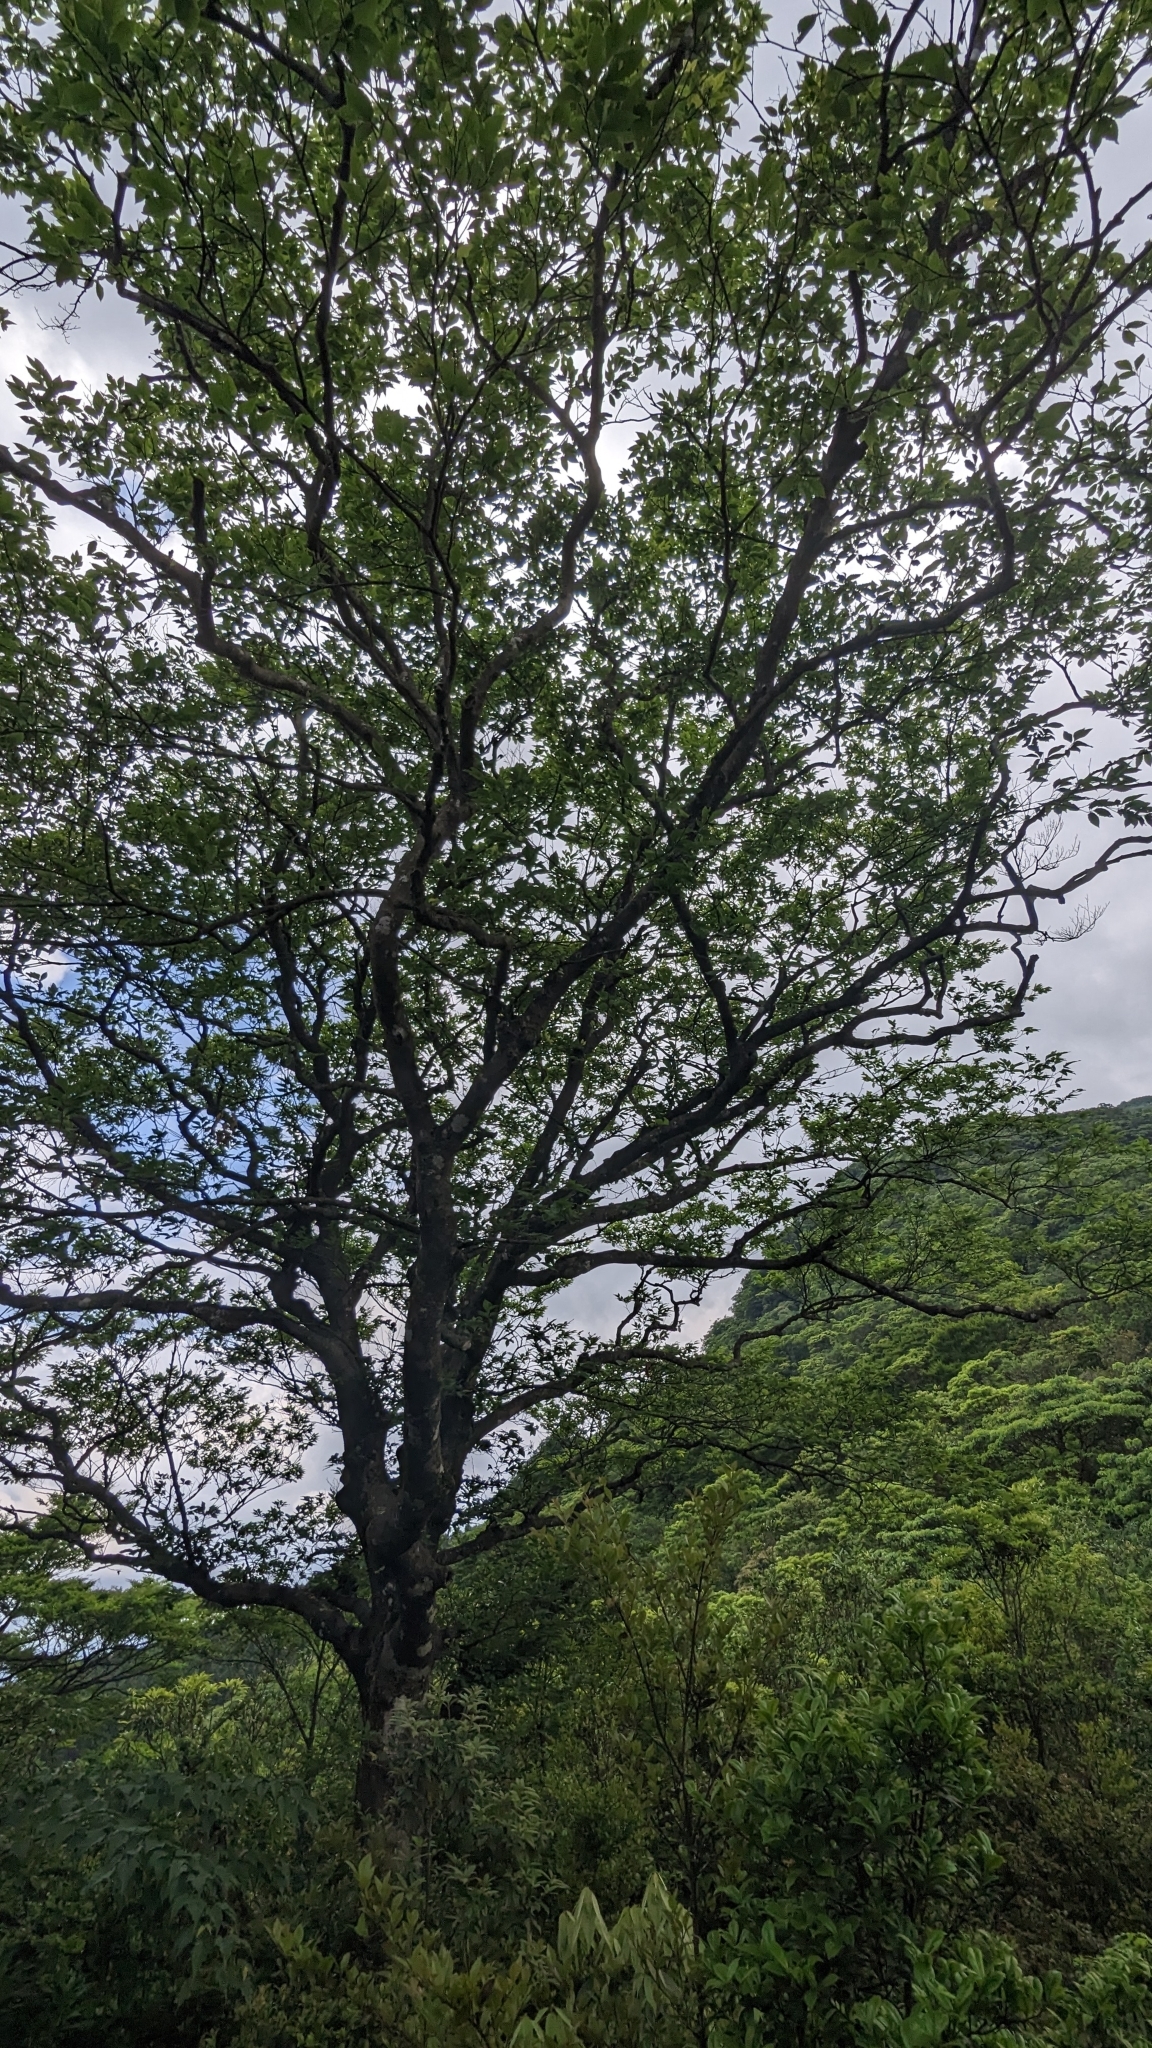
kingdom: Plantae
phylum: Tracheophyta
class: Magnoliopsida
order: Fagales
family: Fagaceae
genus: Fagus
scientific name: Fagus hayatae
